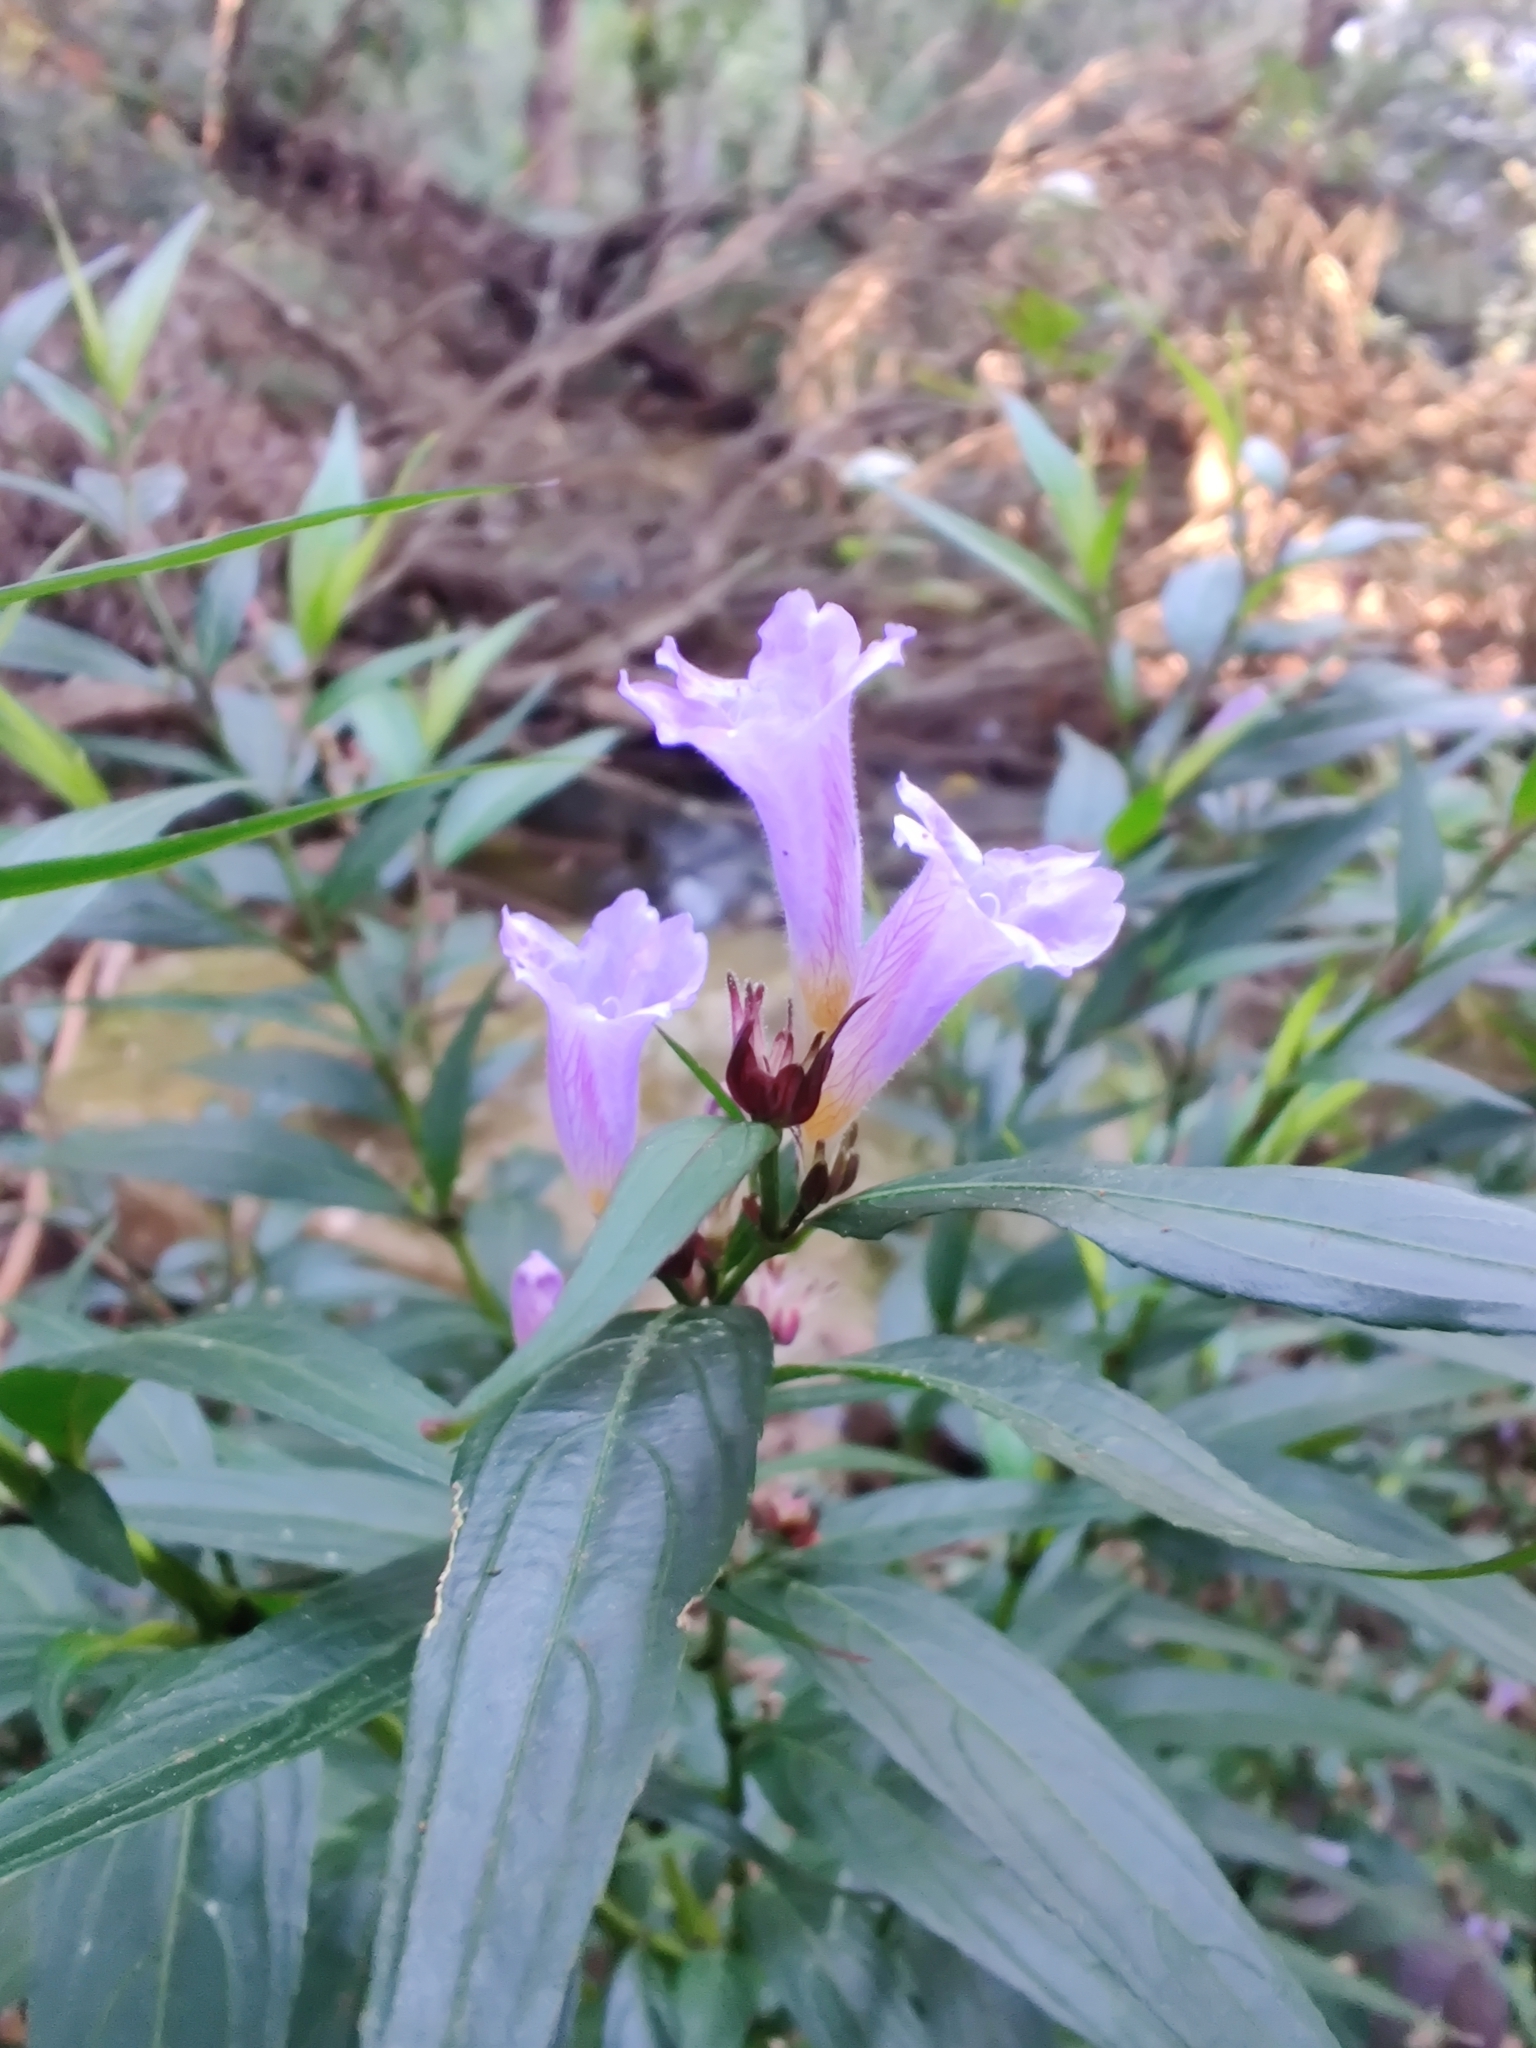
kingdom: Plantae
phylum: Tracheophyta
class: Magnoliopsida
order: Lamiales
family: Acanthaceae
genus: Strobilanthes
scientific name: Strobilanthes anisophylla
